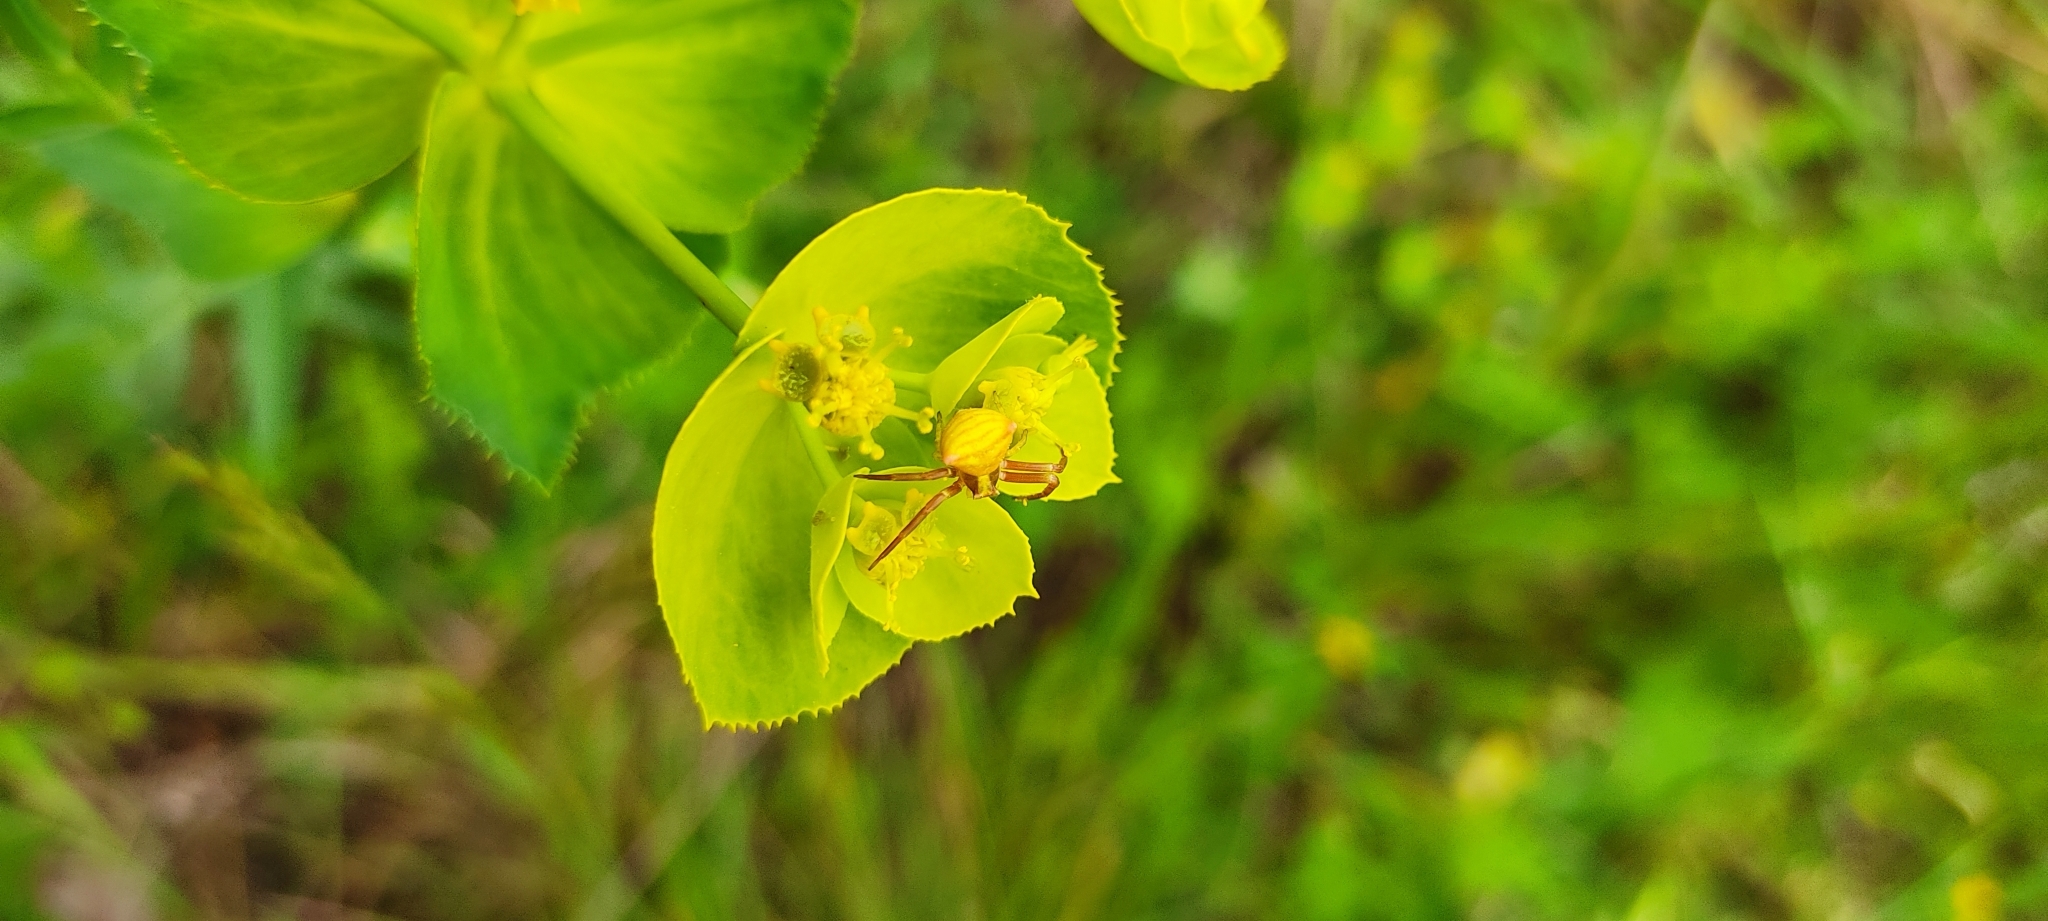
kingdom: Animalia
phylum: Arthropoda
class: Arachnida
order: Araneae
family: Thomisidae
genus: Thomisus
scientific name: Thomisus onustus
